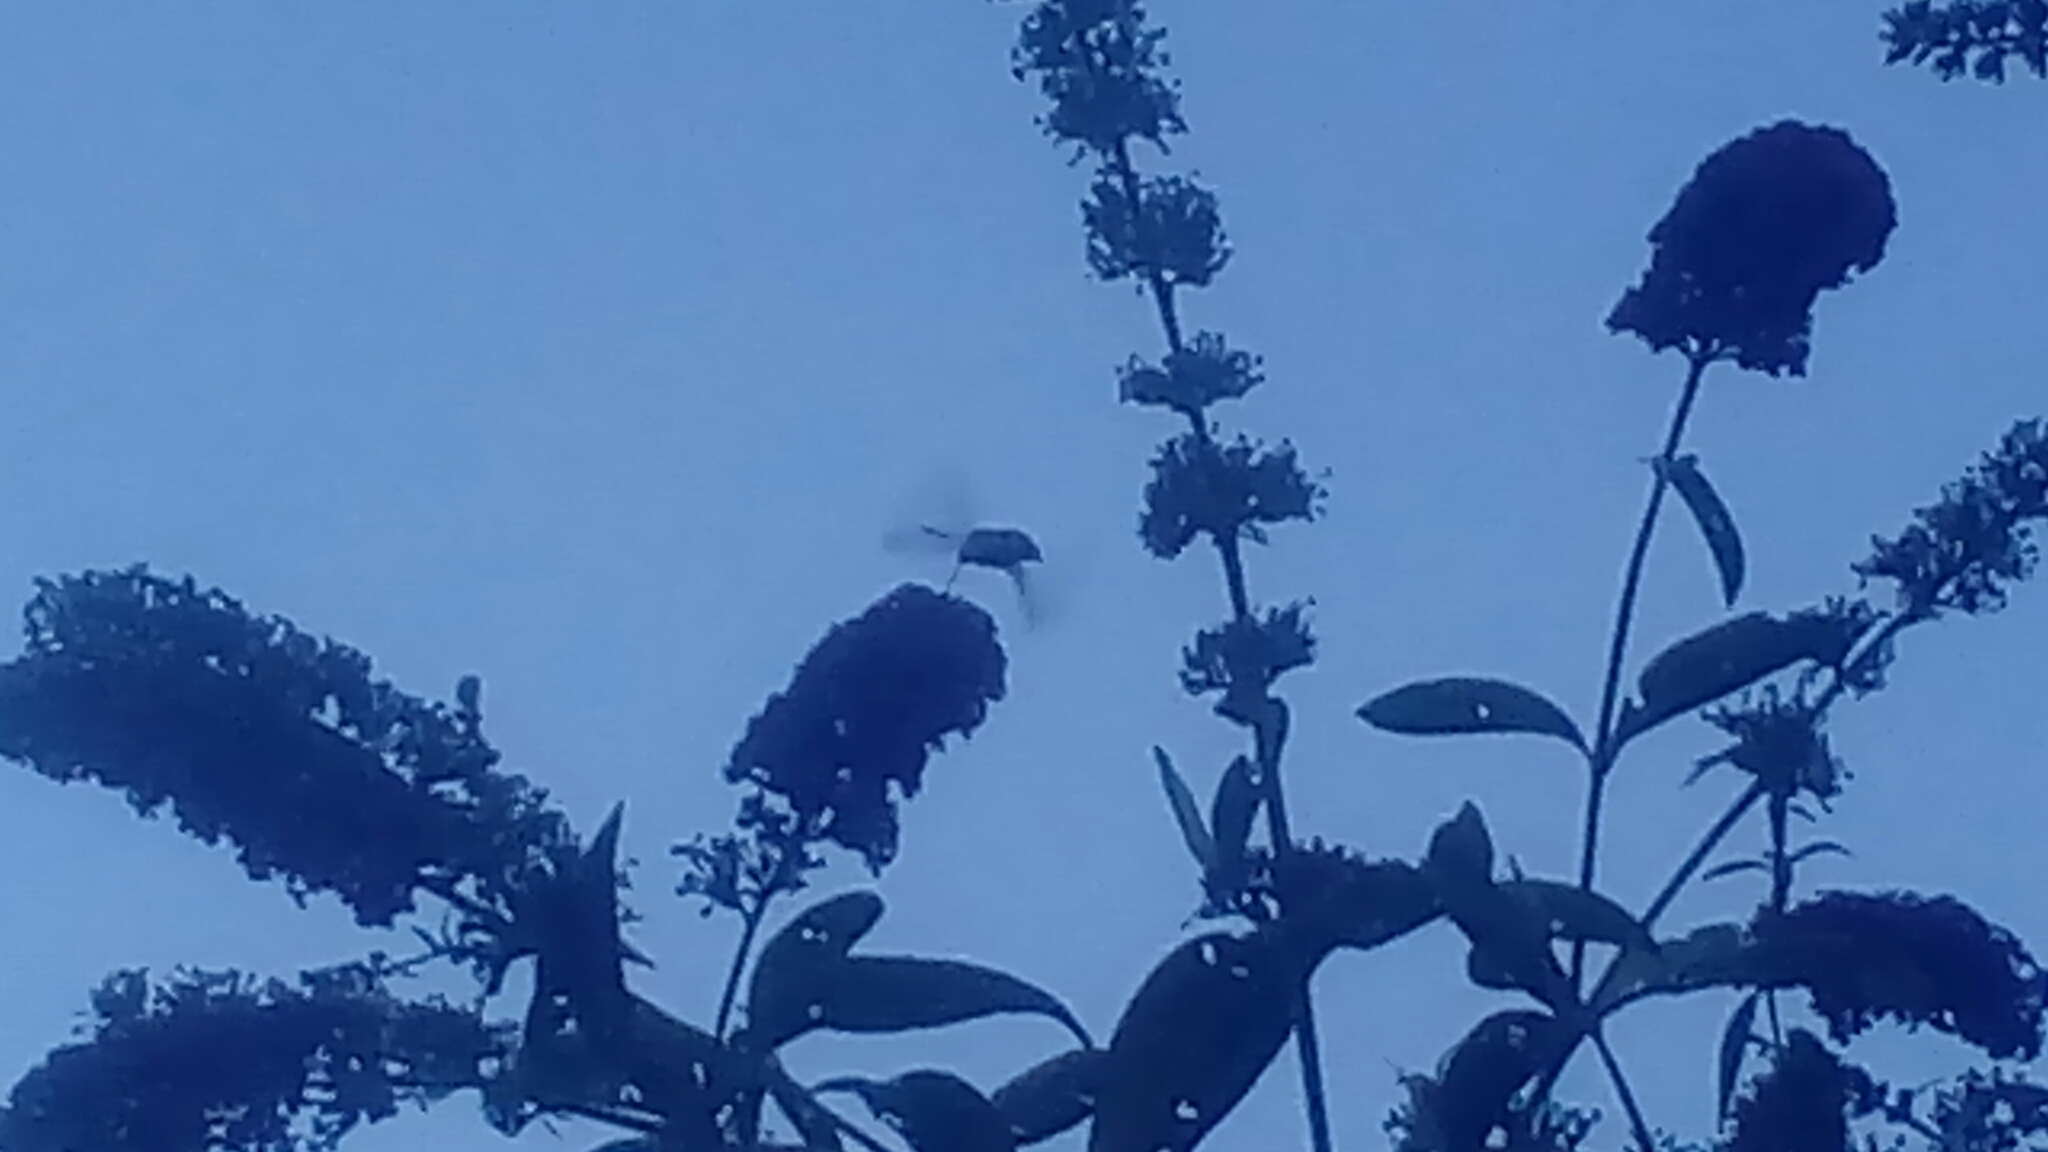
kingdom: Animalia
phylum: Arthropoda
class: Insecta
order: Lepidoptera
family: Sphingidae
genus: Macroglossum
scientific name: Macroglossum stellatarum
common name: Humming-bird hawk-moth
